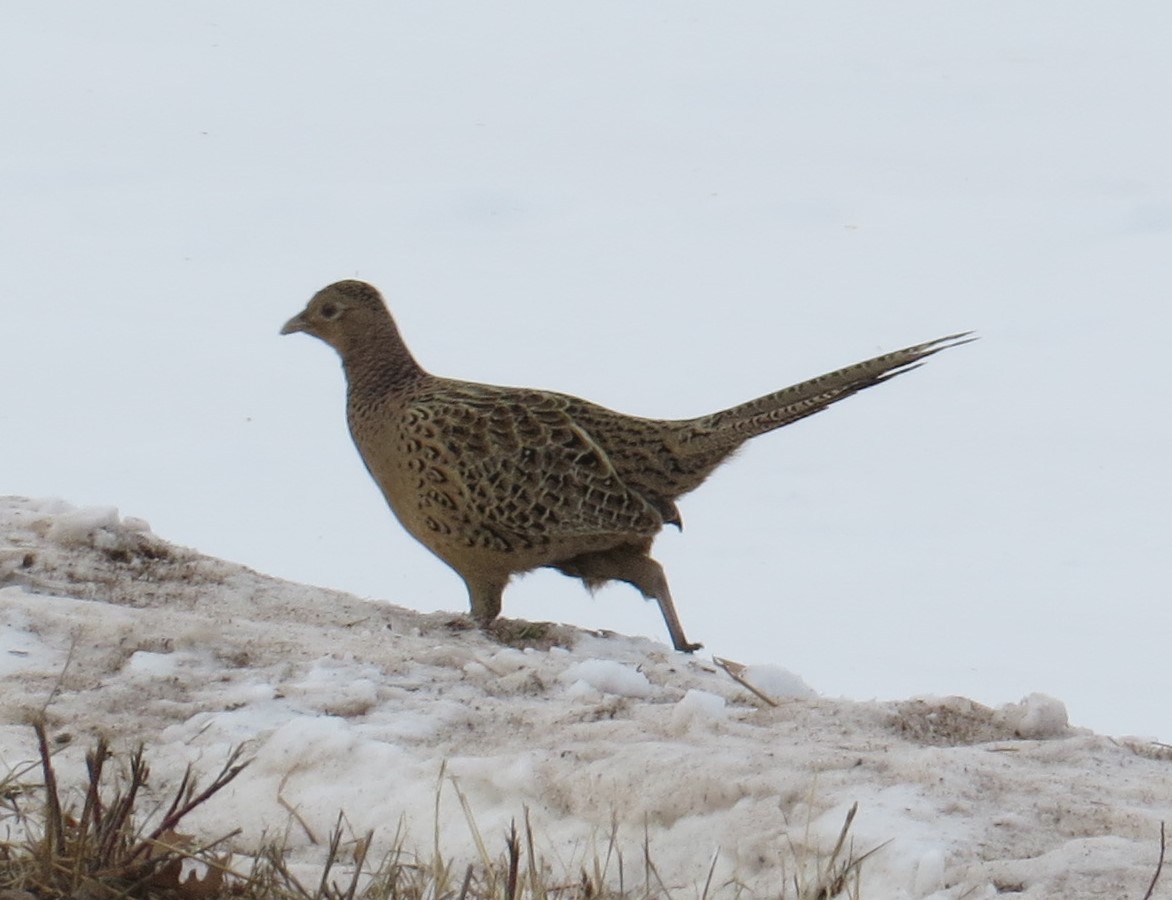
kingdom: Animalia
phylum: Chordata
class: Aves
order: Galliformes
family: Phasianidae
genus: Phasianus
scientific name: Phasianus colchicus
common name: Common pheasant
